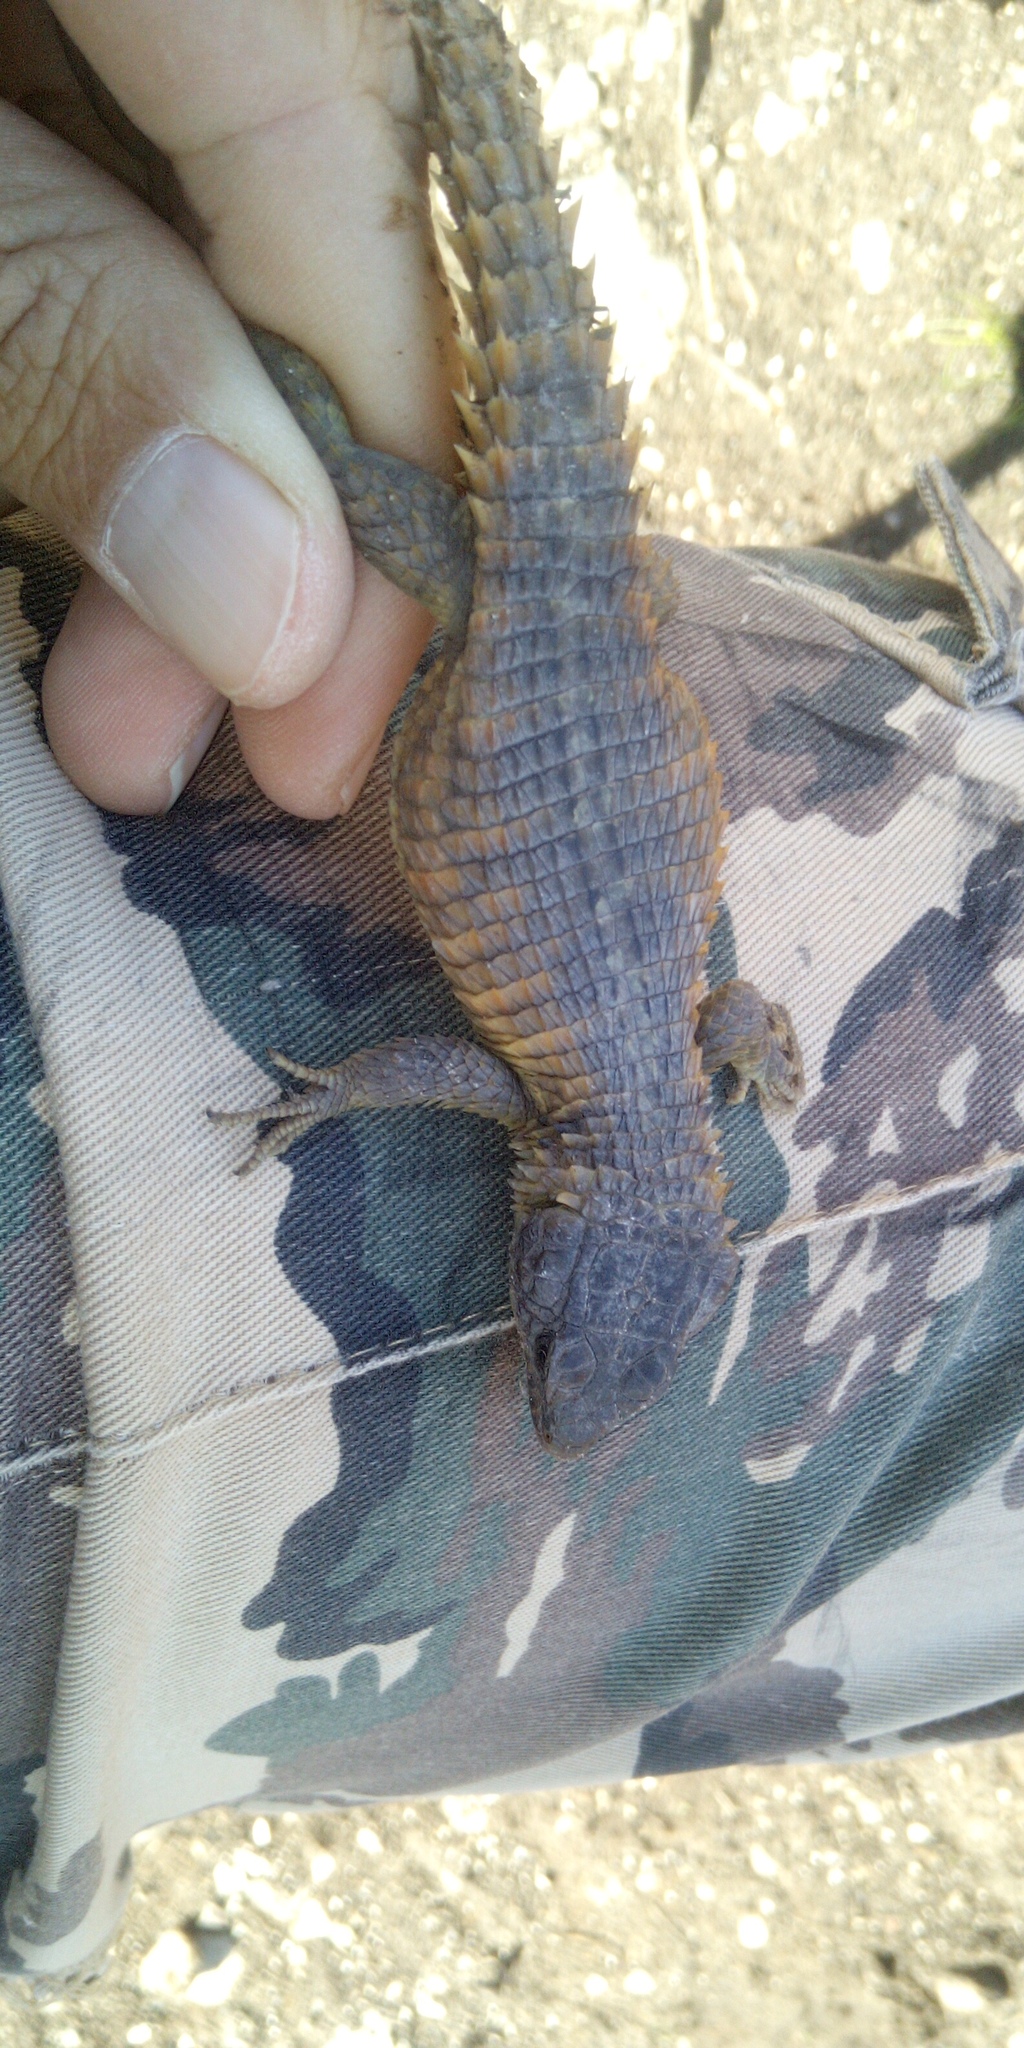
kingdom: Animalia
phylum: Chordata
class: Squamata
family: Cordylidae
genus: Cordylus
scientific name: Cordylus cordylus
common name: Cape girdled lizard
